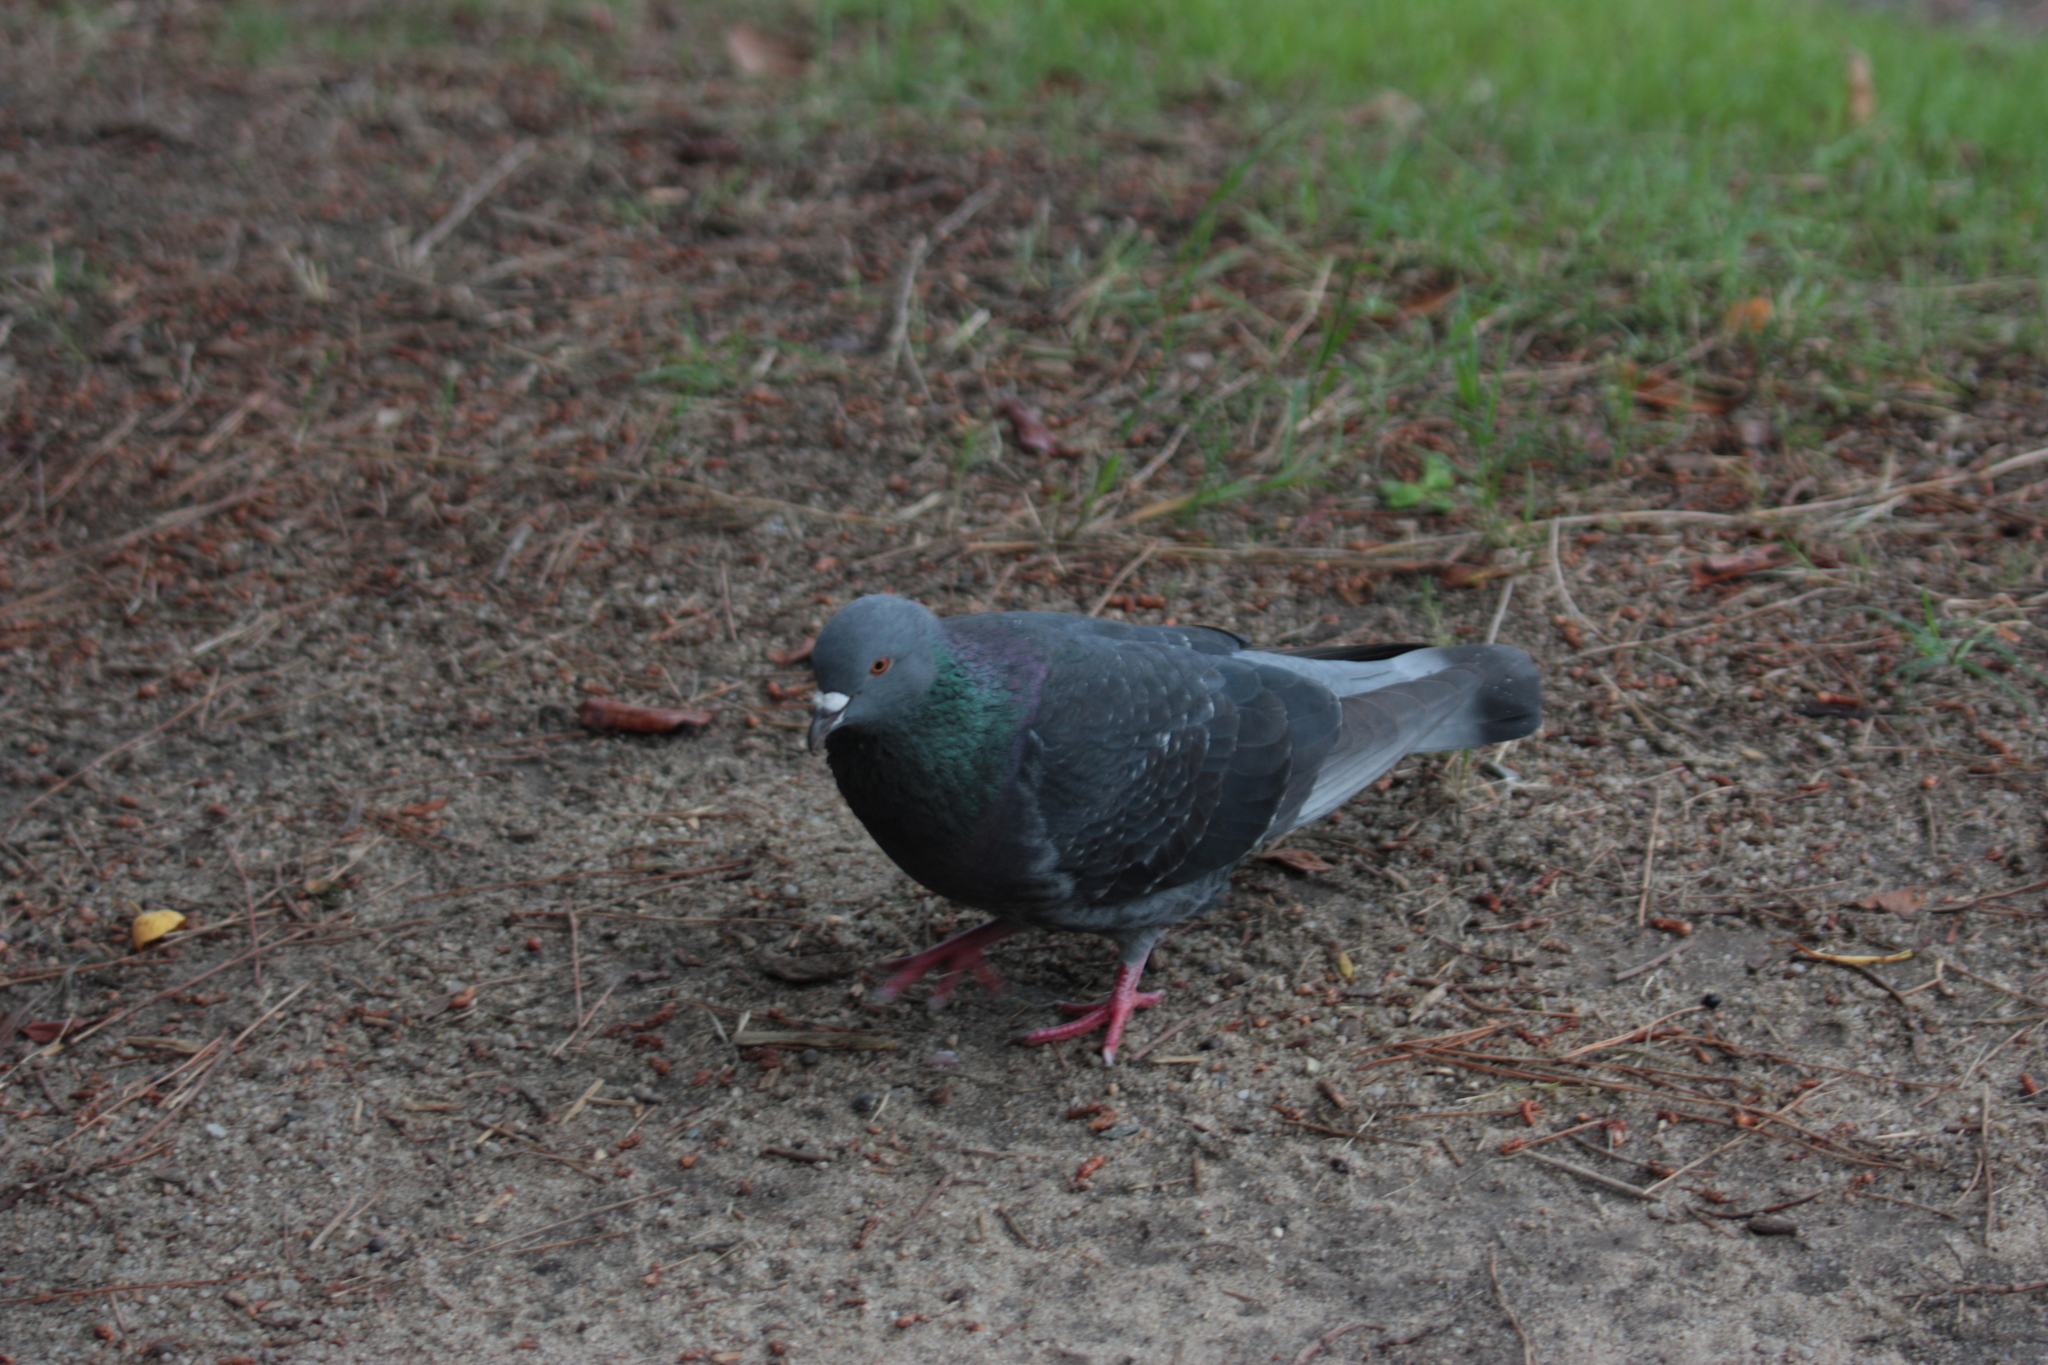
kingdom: Animalia
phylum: Chordata
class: Aves
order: Columbiformes
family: Columbidae
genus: Columba
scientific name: Columba livia
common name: Rock pigeon
